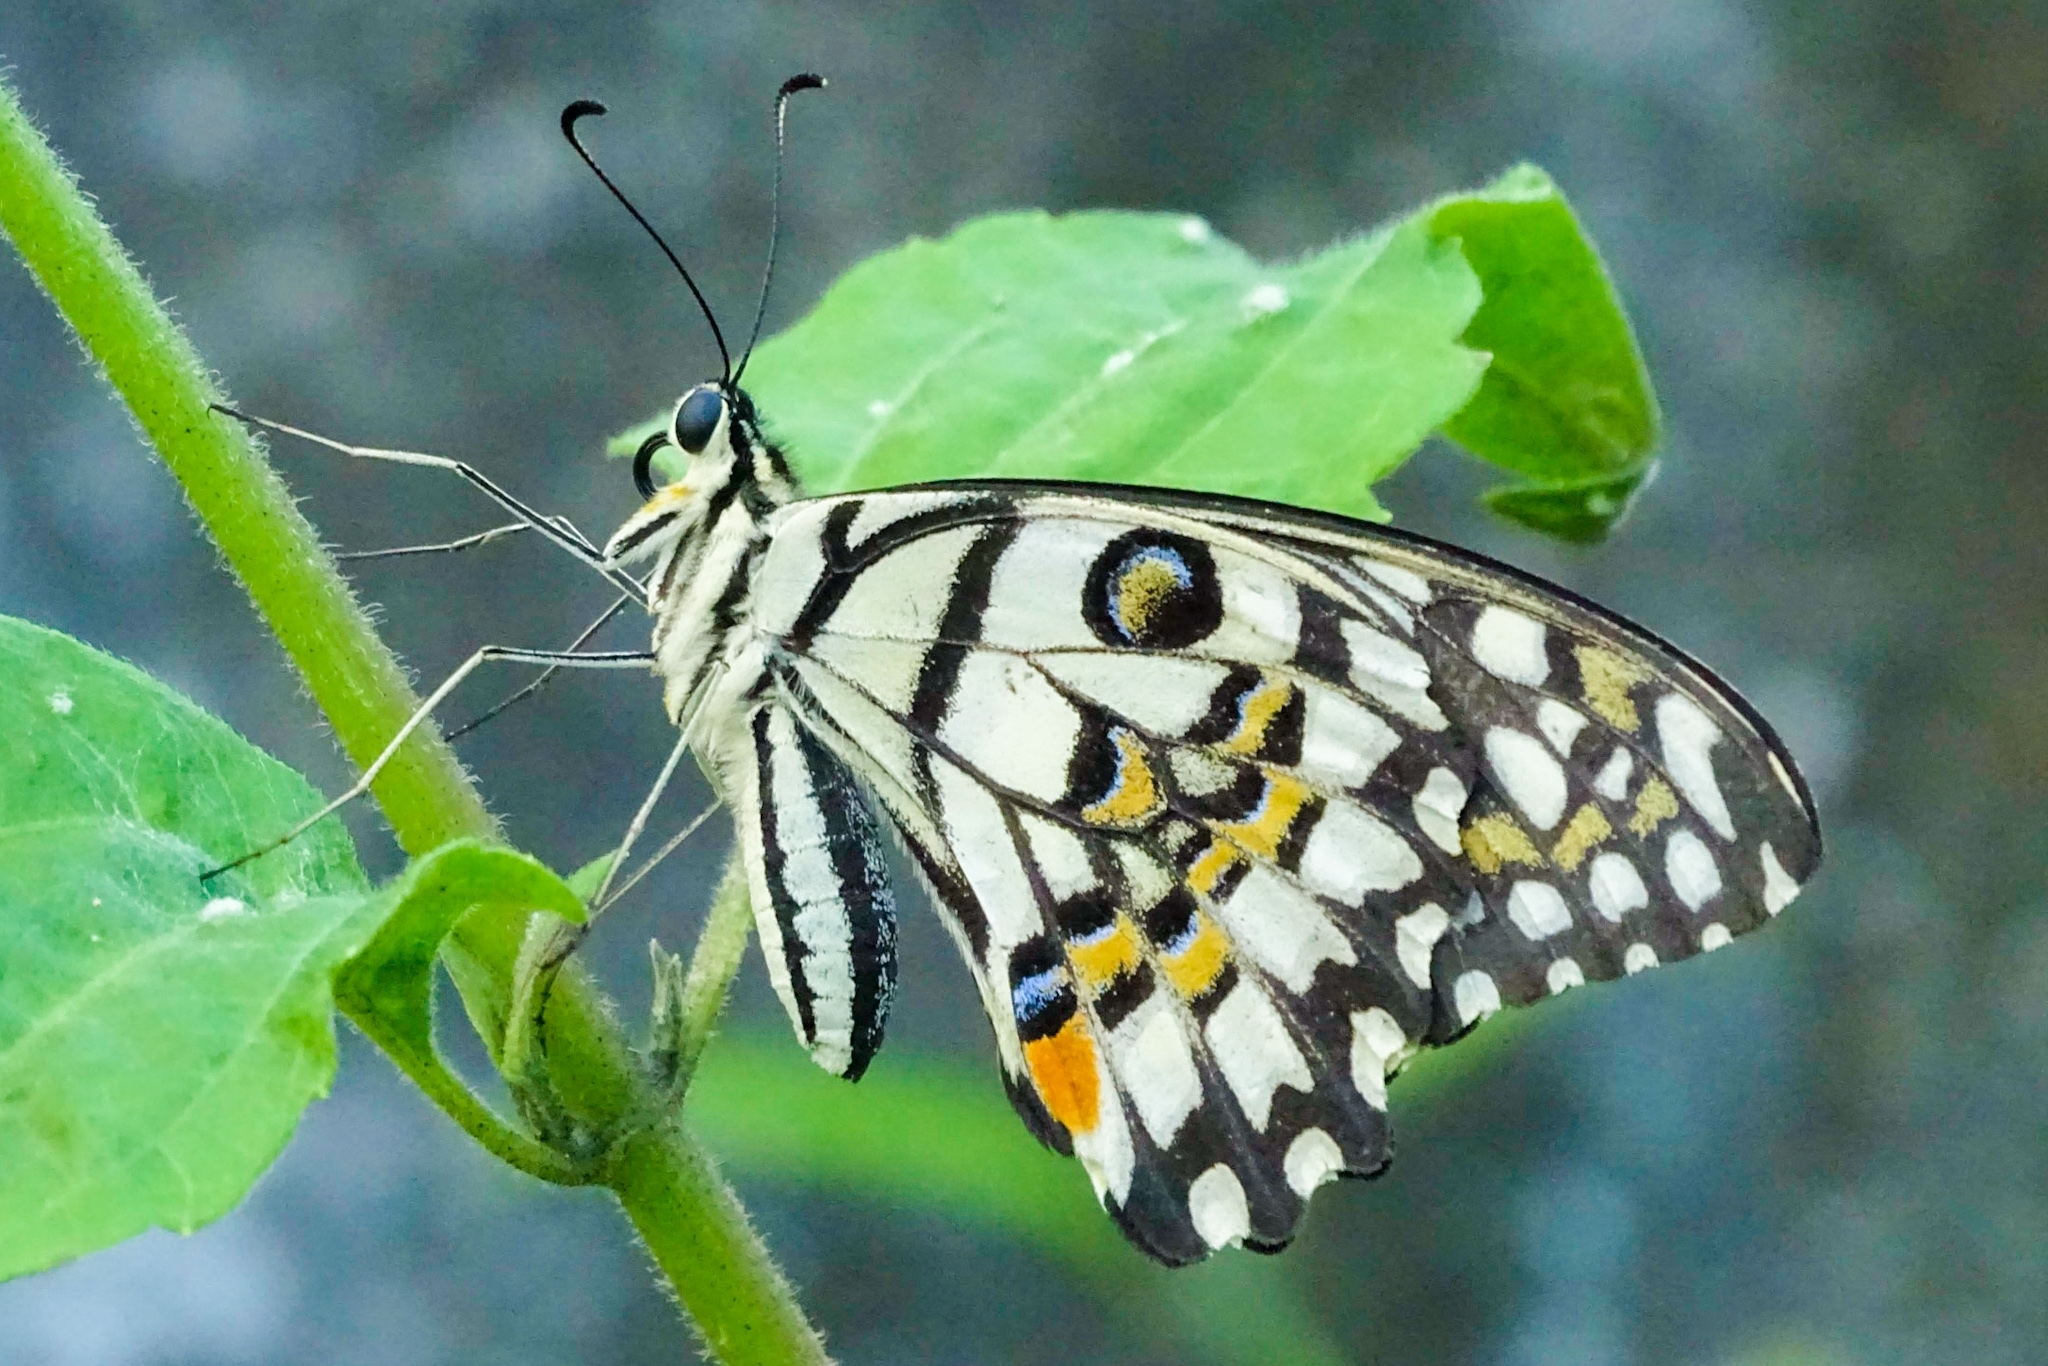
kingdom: Animalia
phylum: Arthropoda
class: Insecta
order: Lepidoptera
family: Papilionidae
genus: Papilio
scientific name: Papilio demoleus
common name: Lime butterfly
